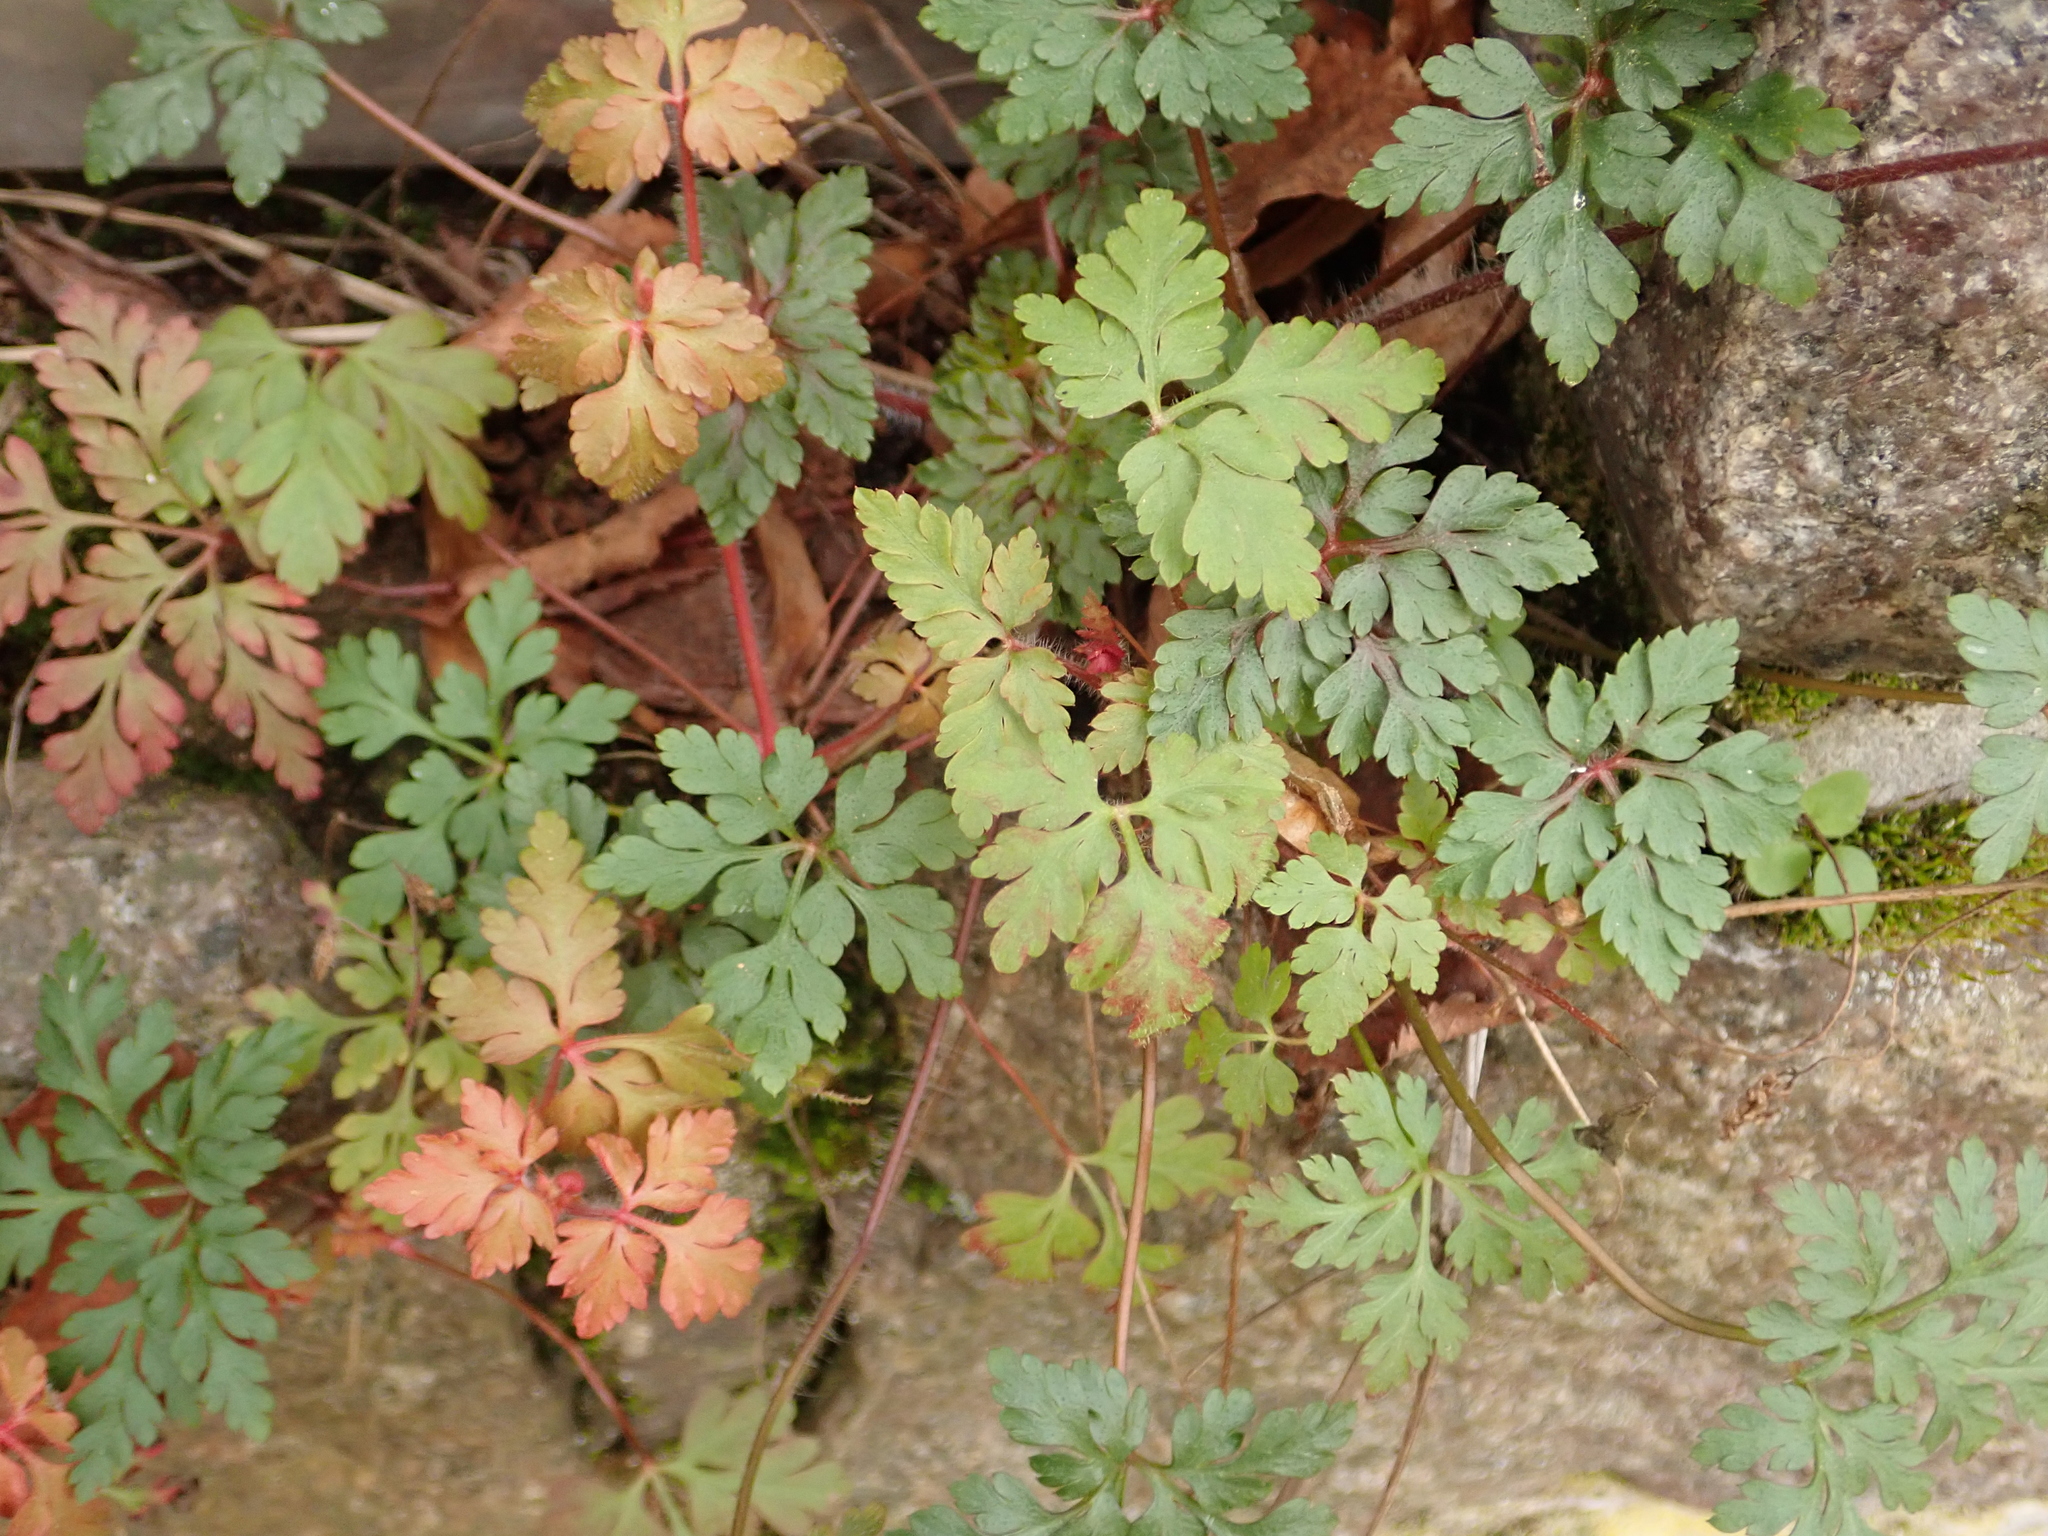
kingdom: Plantae
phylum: Tracheophyta
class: Magnoliopsida
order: Geraniales
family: Geraniaceae
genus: Geranium
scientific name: Geranium robertianum
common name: Herb-robert
